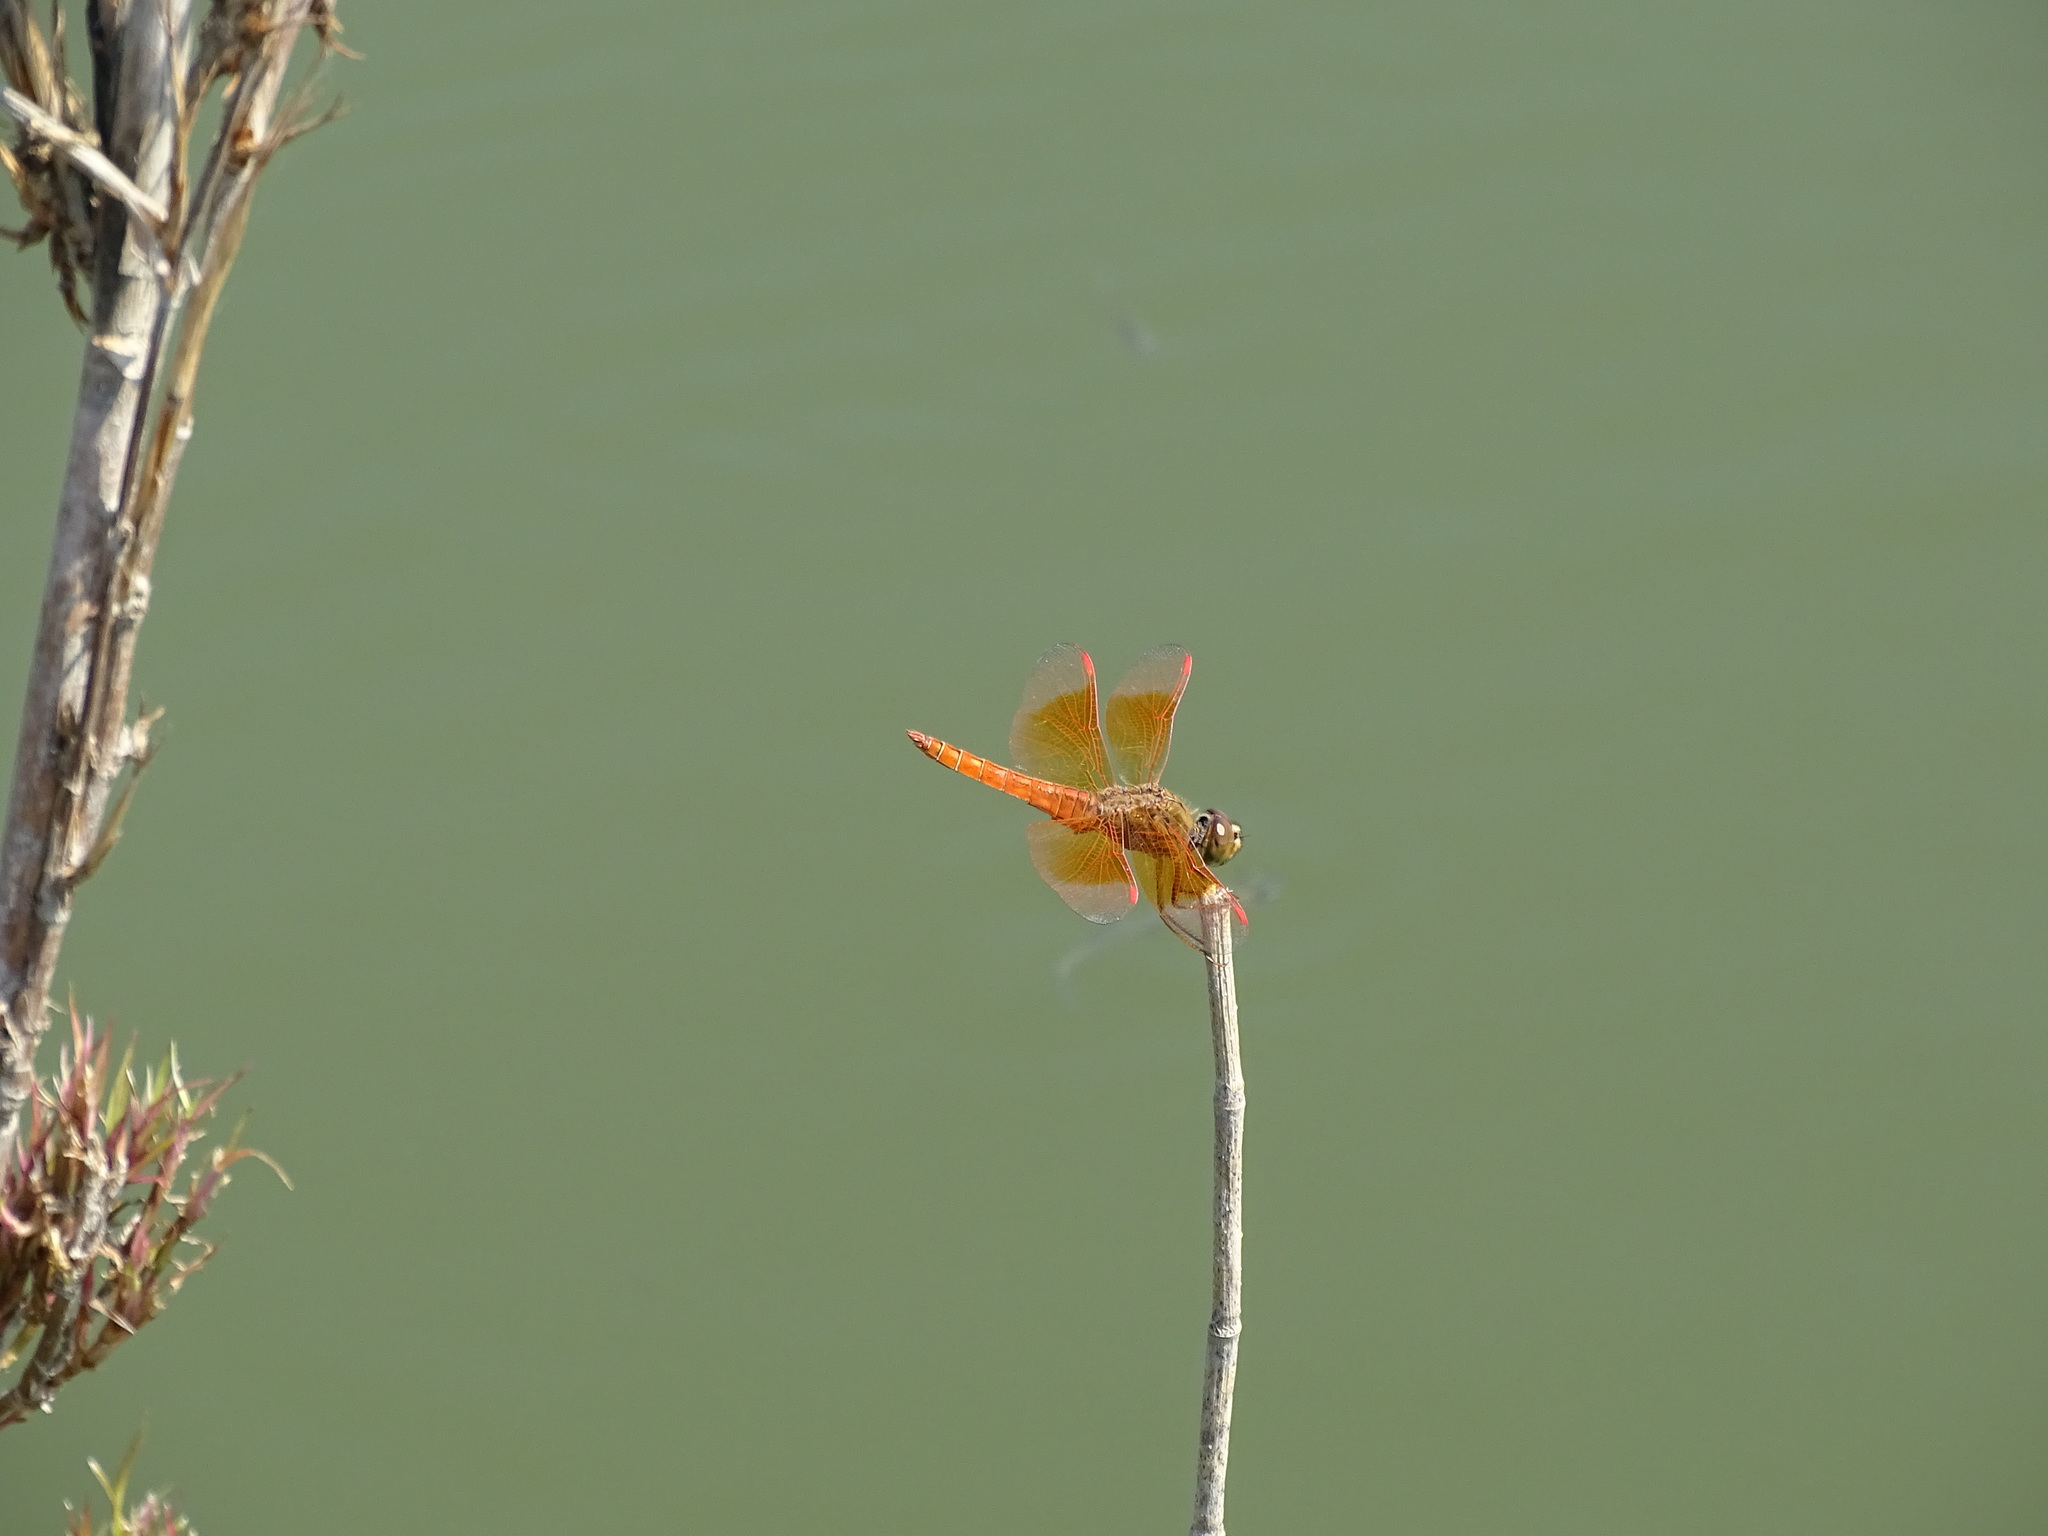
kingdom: Animalia
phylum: Arthropoda
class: Insecta
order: Odonata
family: Libellulidae
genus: Brachythemis
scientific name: Brachythemis contaminata
